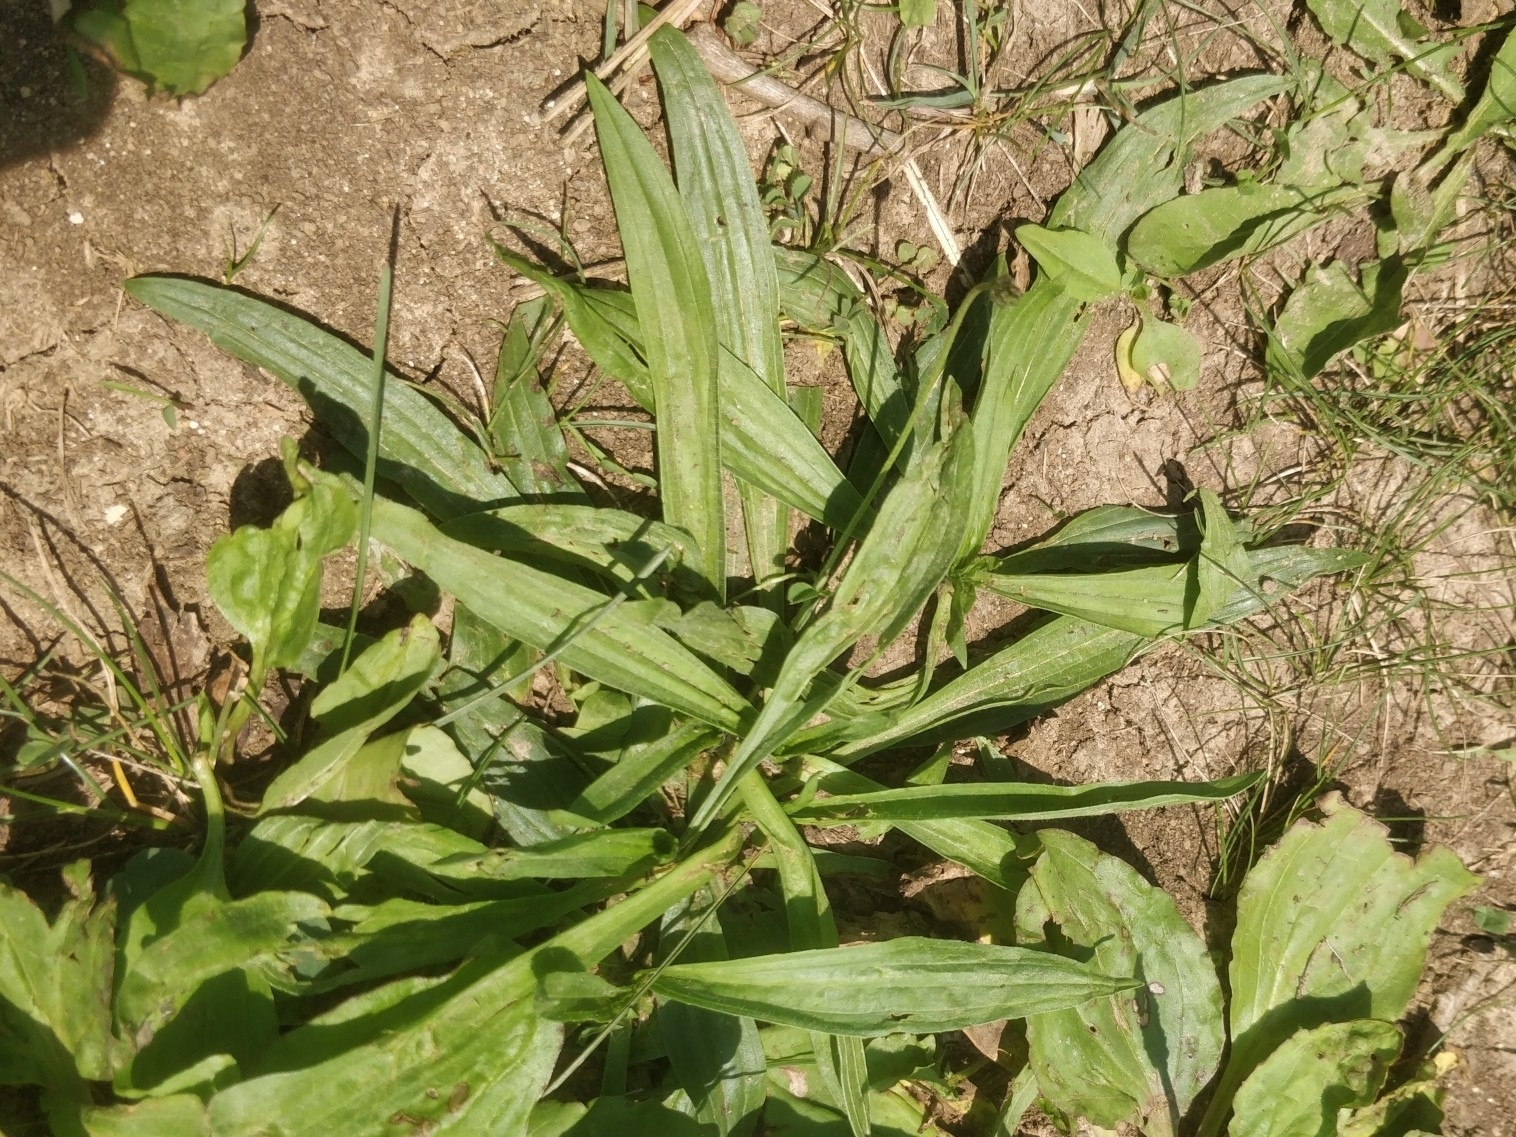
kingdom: Plantae
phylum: Tracheophyta
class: Magnoliopsida
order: Lamiales
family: Plantaginaceae
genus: Plantago
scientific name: Plantago lanceolata
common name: Ribwort plantain
